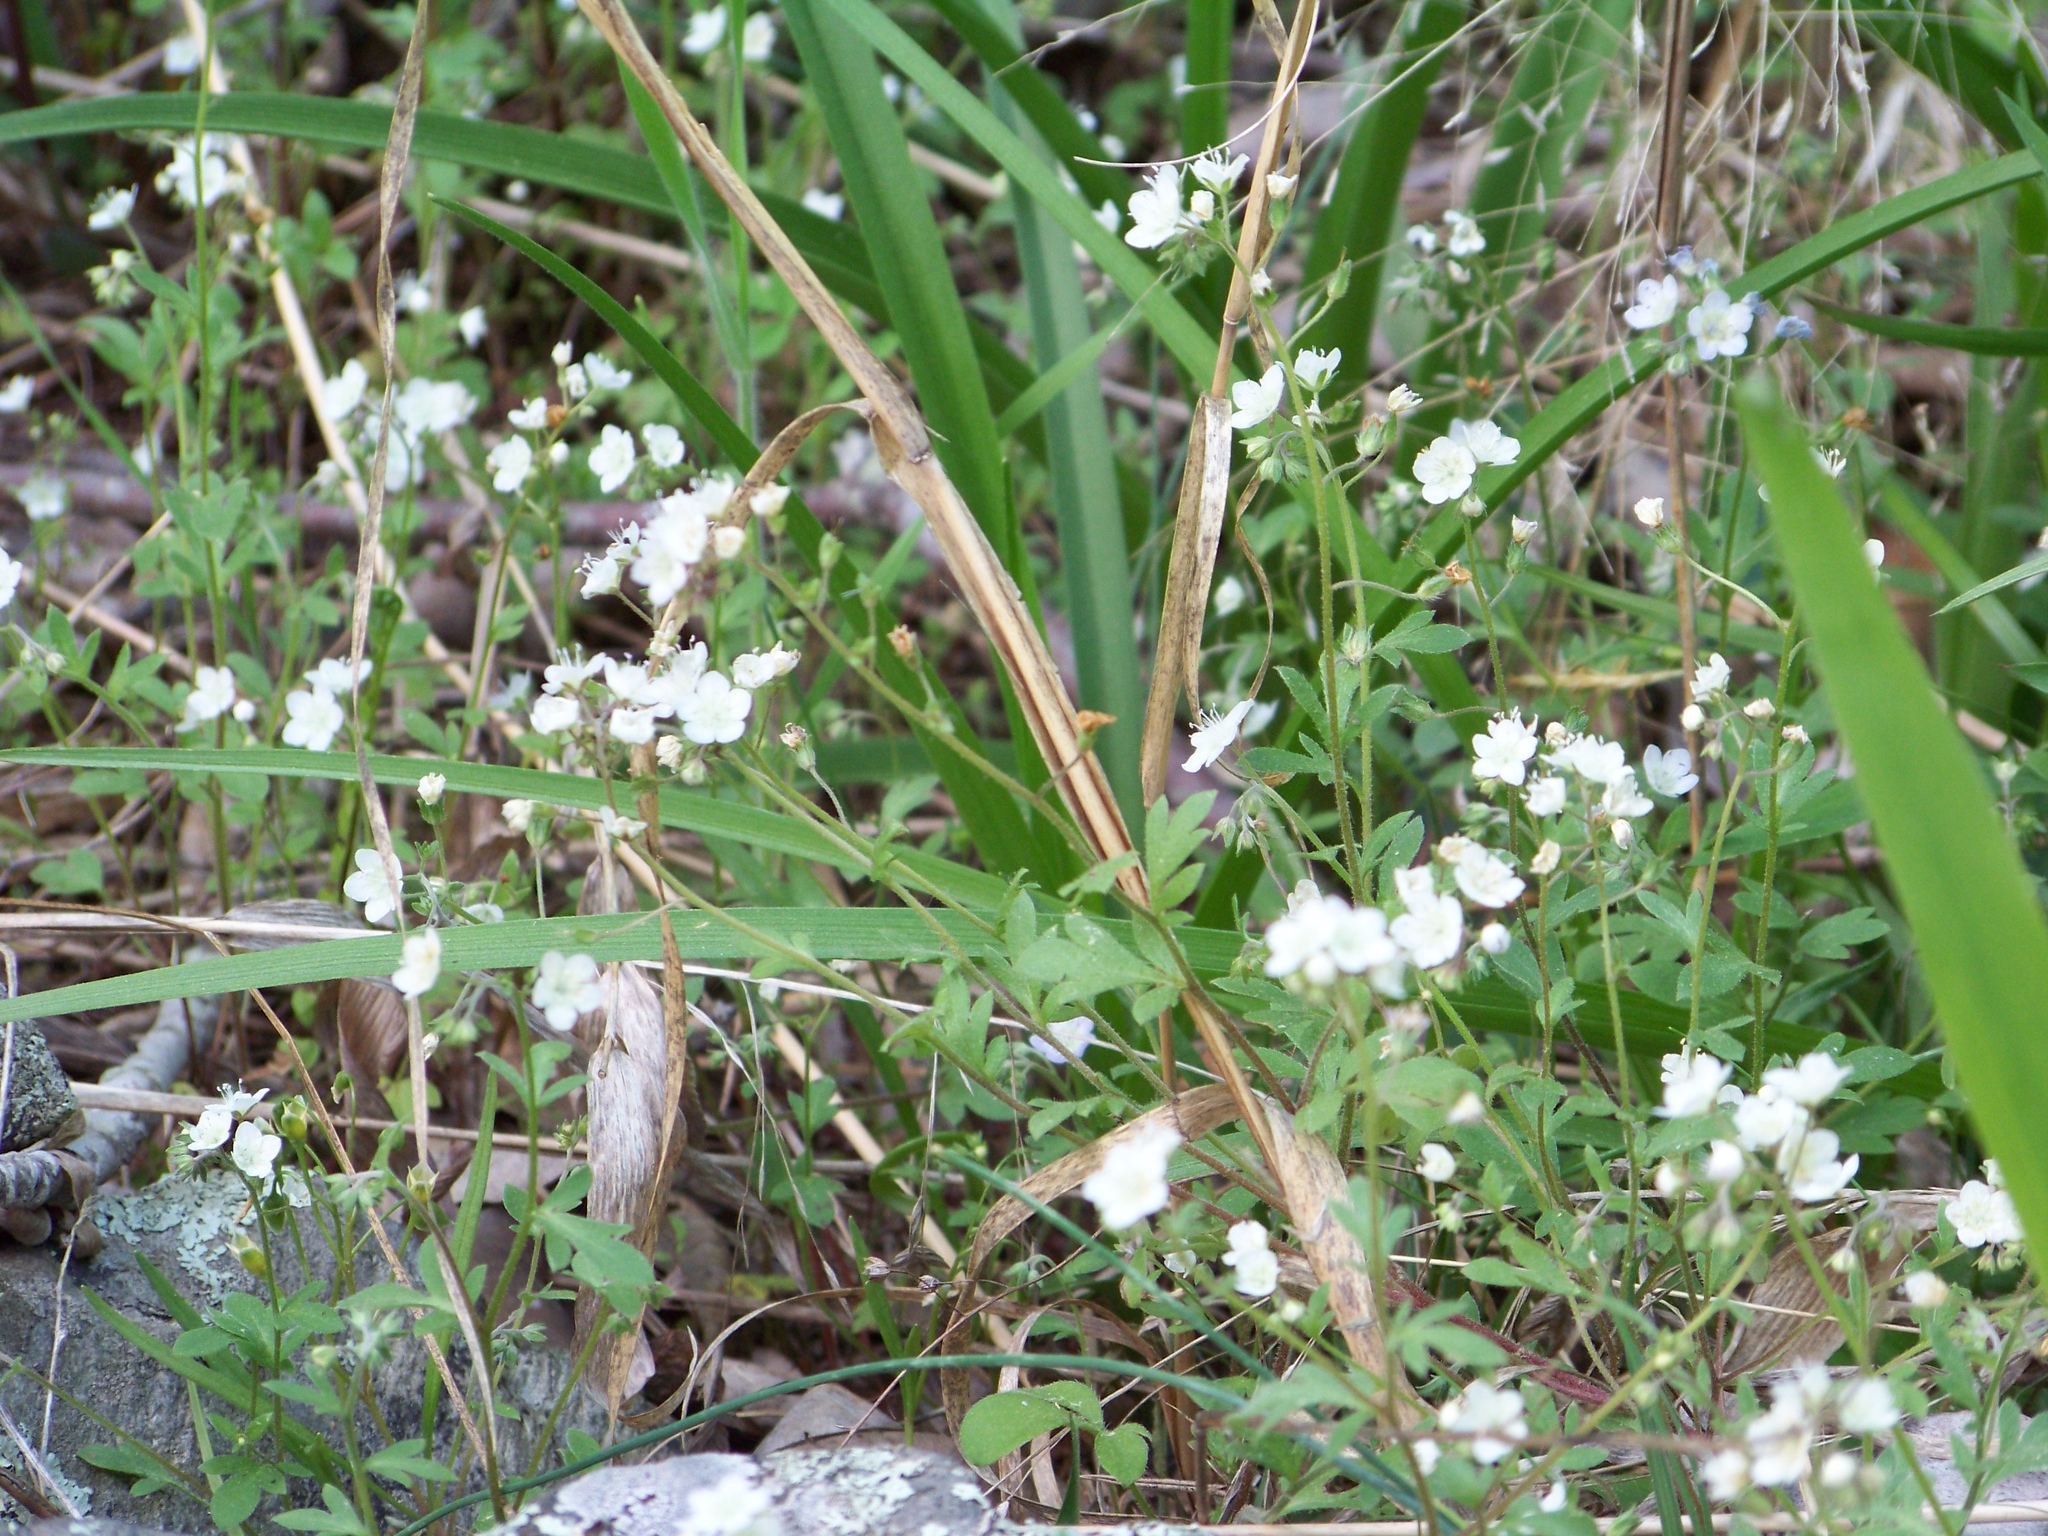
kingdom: Plantae
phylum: Tracheophyta
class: Magnoliopsida
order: Boraginales
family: Hydrophyllaceae
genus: Phacelia
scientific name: Phacelia dubia
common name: Appalachian phacelia
